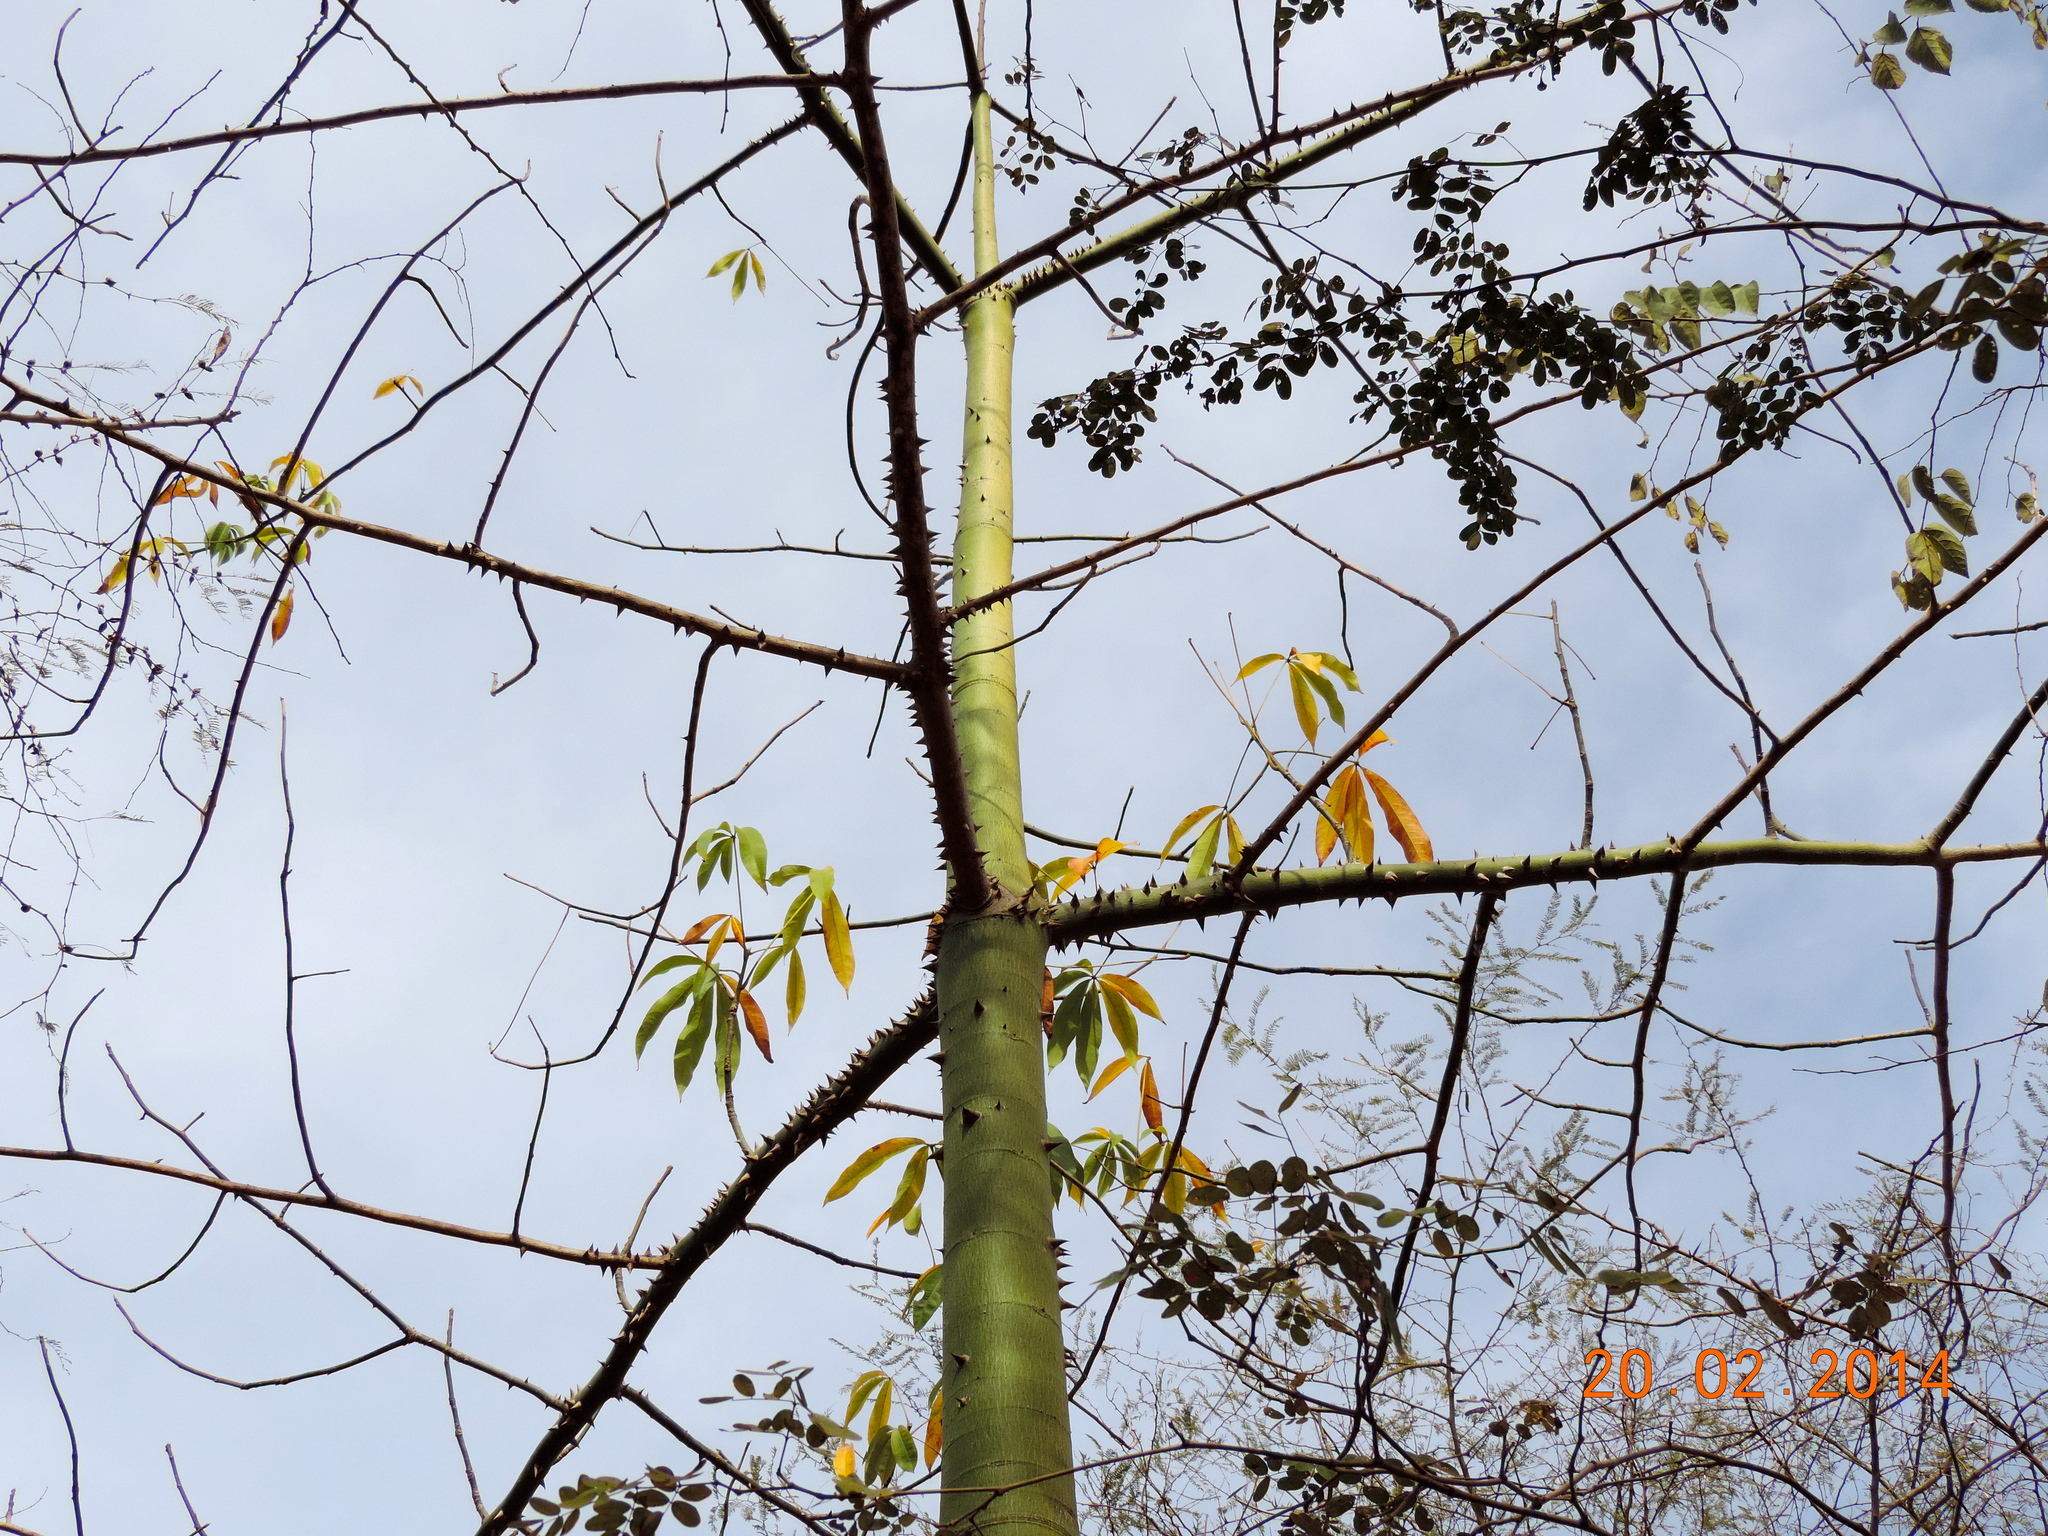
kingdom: Plantae
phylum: Tracheophyta
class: Magnoliopsida
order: Malvales
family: Malvaceae
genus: Ceiba
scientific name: Ceiba pentandra
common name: Kapok
